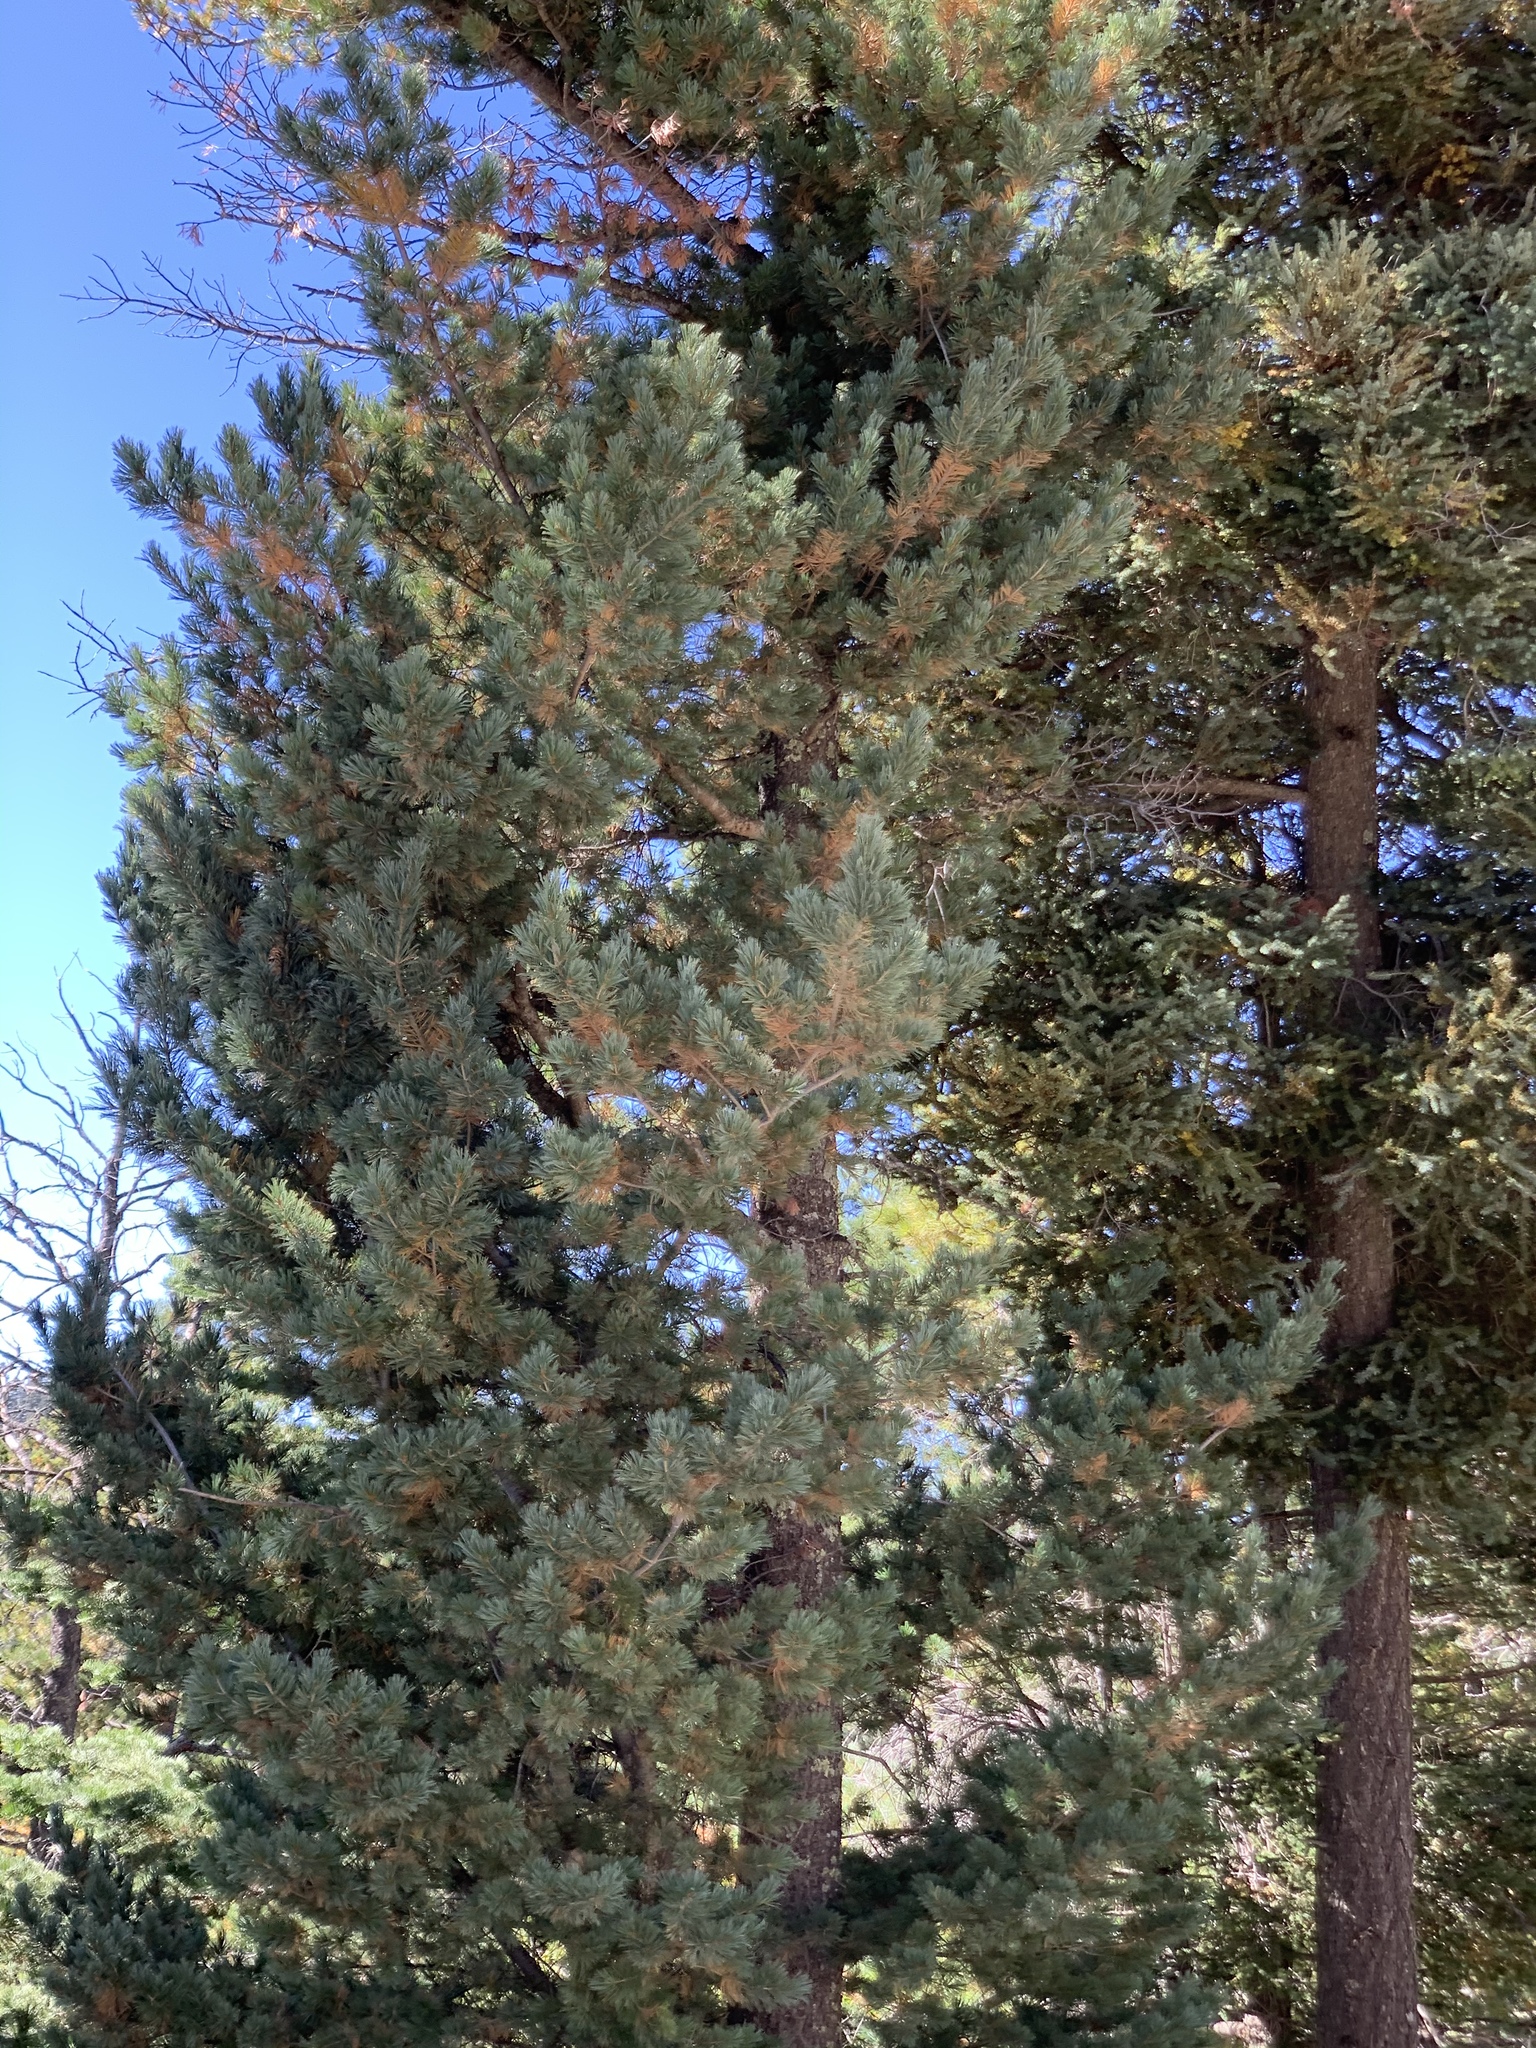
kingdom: Plantae
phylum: Tracheophyta
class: Pinopsida
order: Pinales
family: Pinaceae
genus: Pinus
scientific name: Pinus strobiformis
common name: Southwestern white pine
